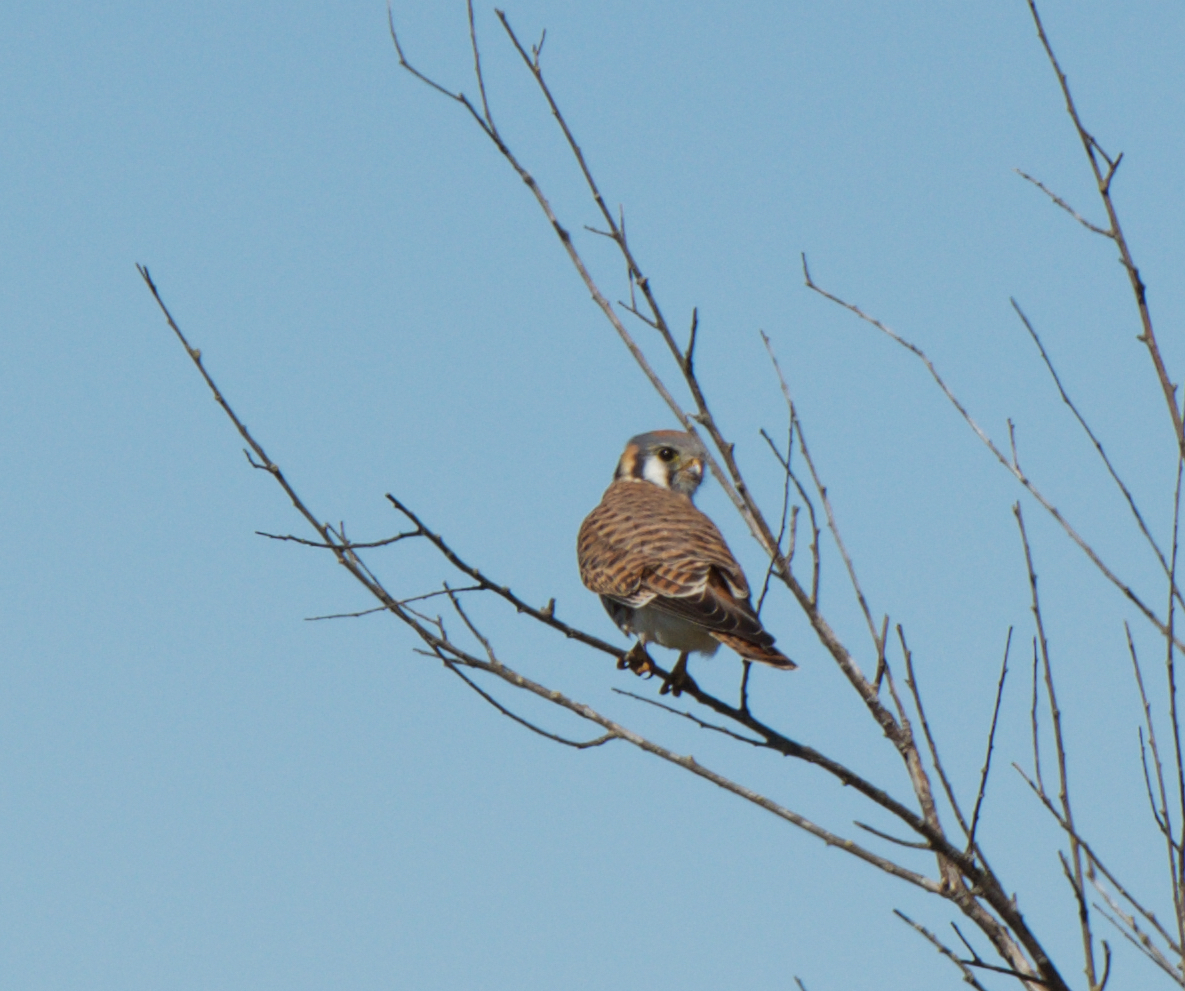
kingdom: Animalia
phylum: Chordata
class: Aves
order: Falconiformes
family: Falconidae
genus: Falco
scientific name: Falco sparverius
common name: American kestrel
